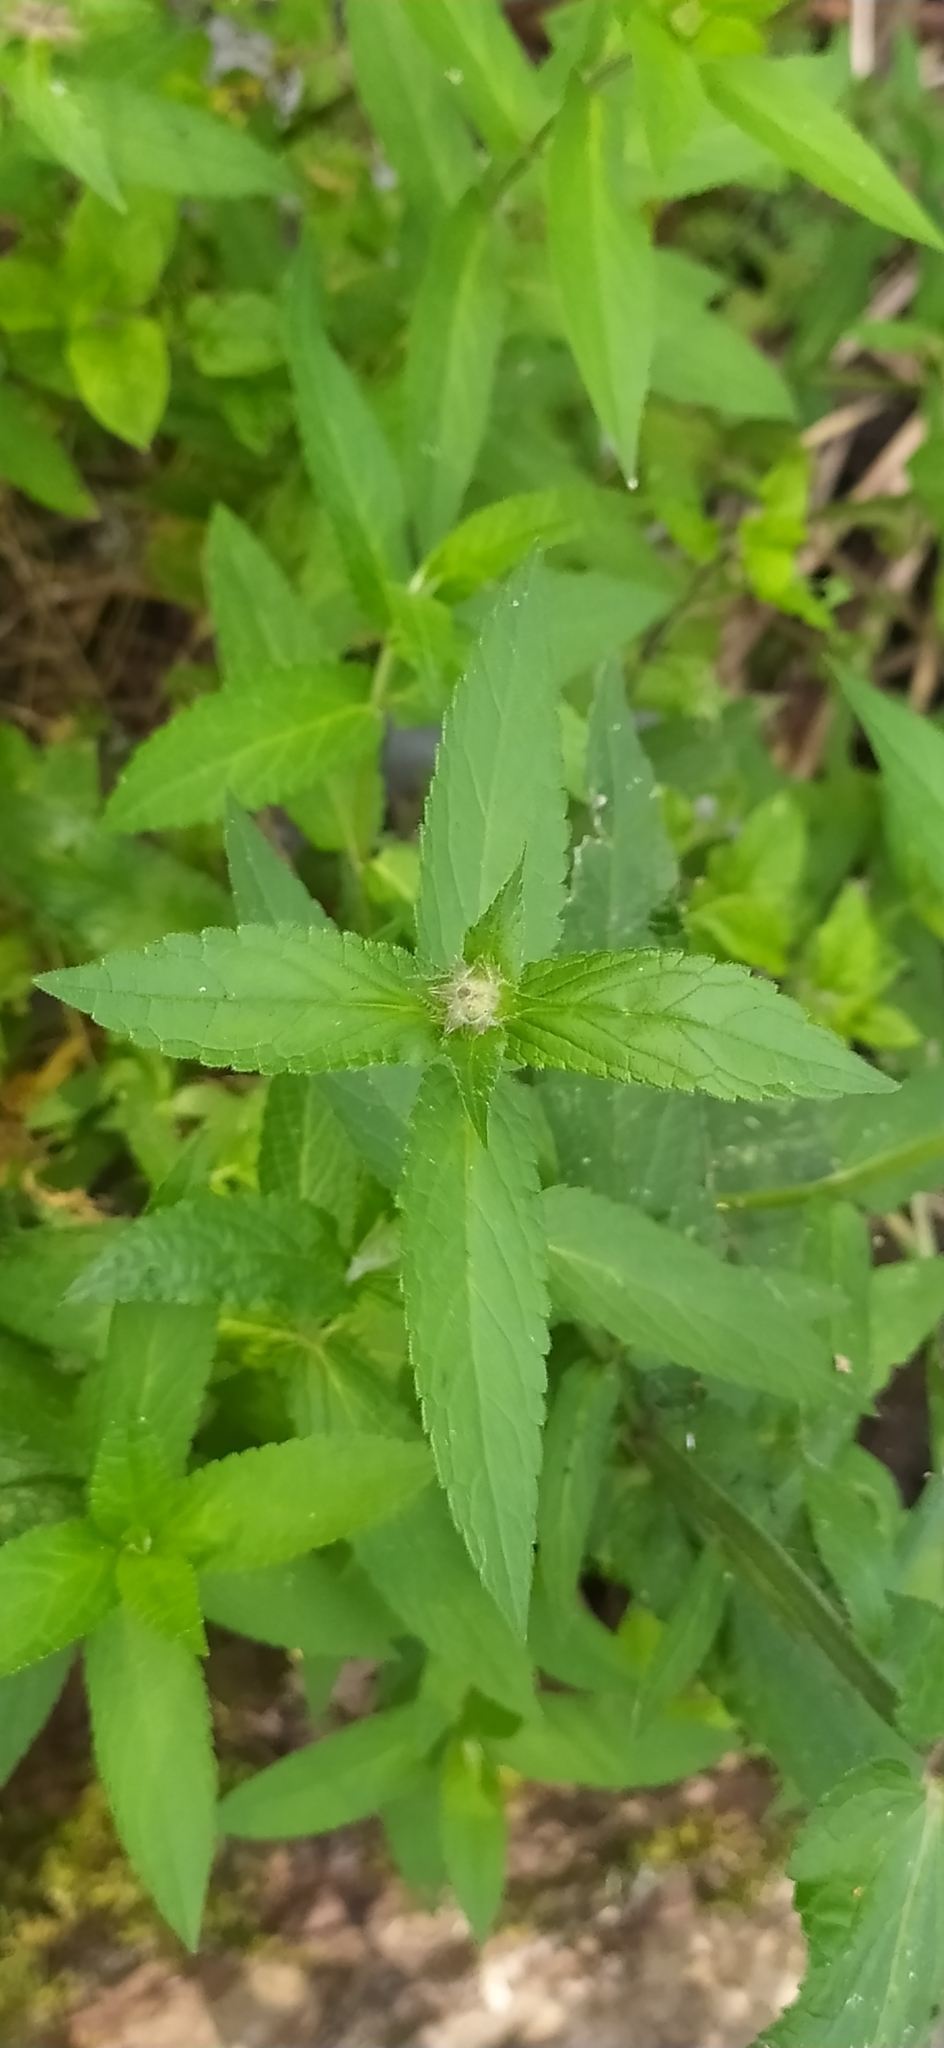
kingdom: Plantae
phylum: Tracheophyta
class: Magnoliopsida
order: Lamiales
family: Lamiaceae
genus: Stachys
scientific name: Stachys palustris
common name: Marsh woundwort
